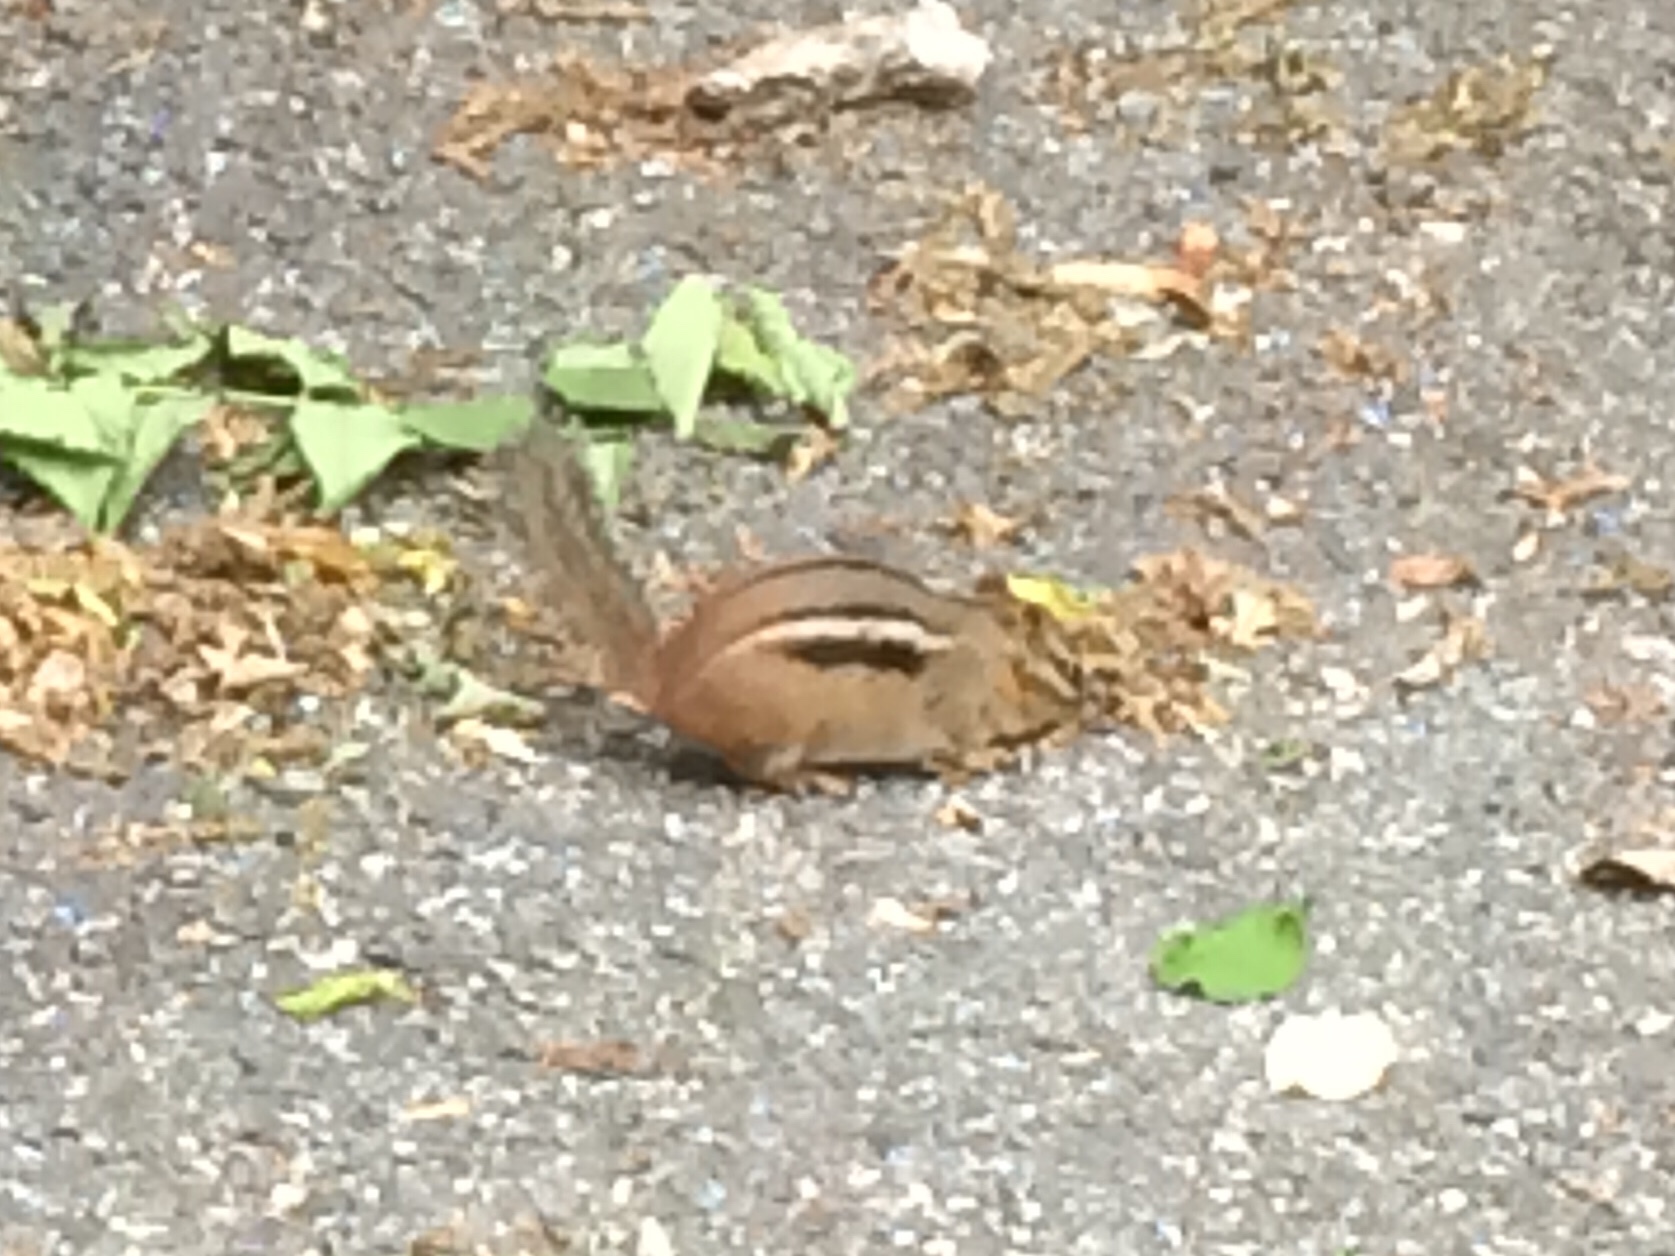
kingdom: Animalia
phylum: Chordata
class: Mammalia
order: Rodentia
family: Sciuridae
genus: Tamias
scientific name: Tamias striatus
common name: Eastern chipmunk
